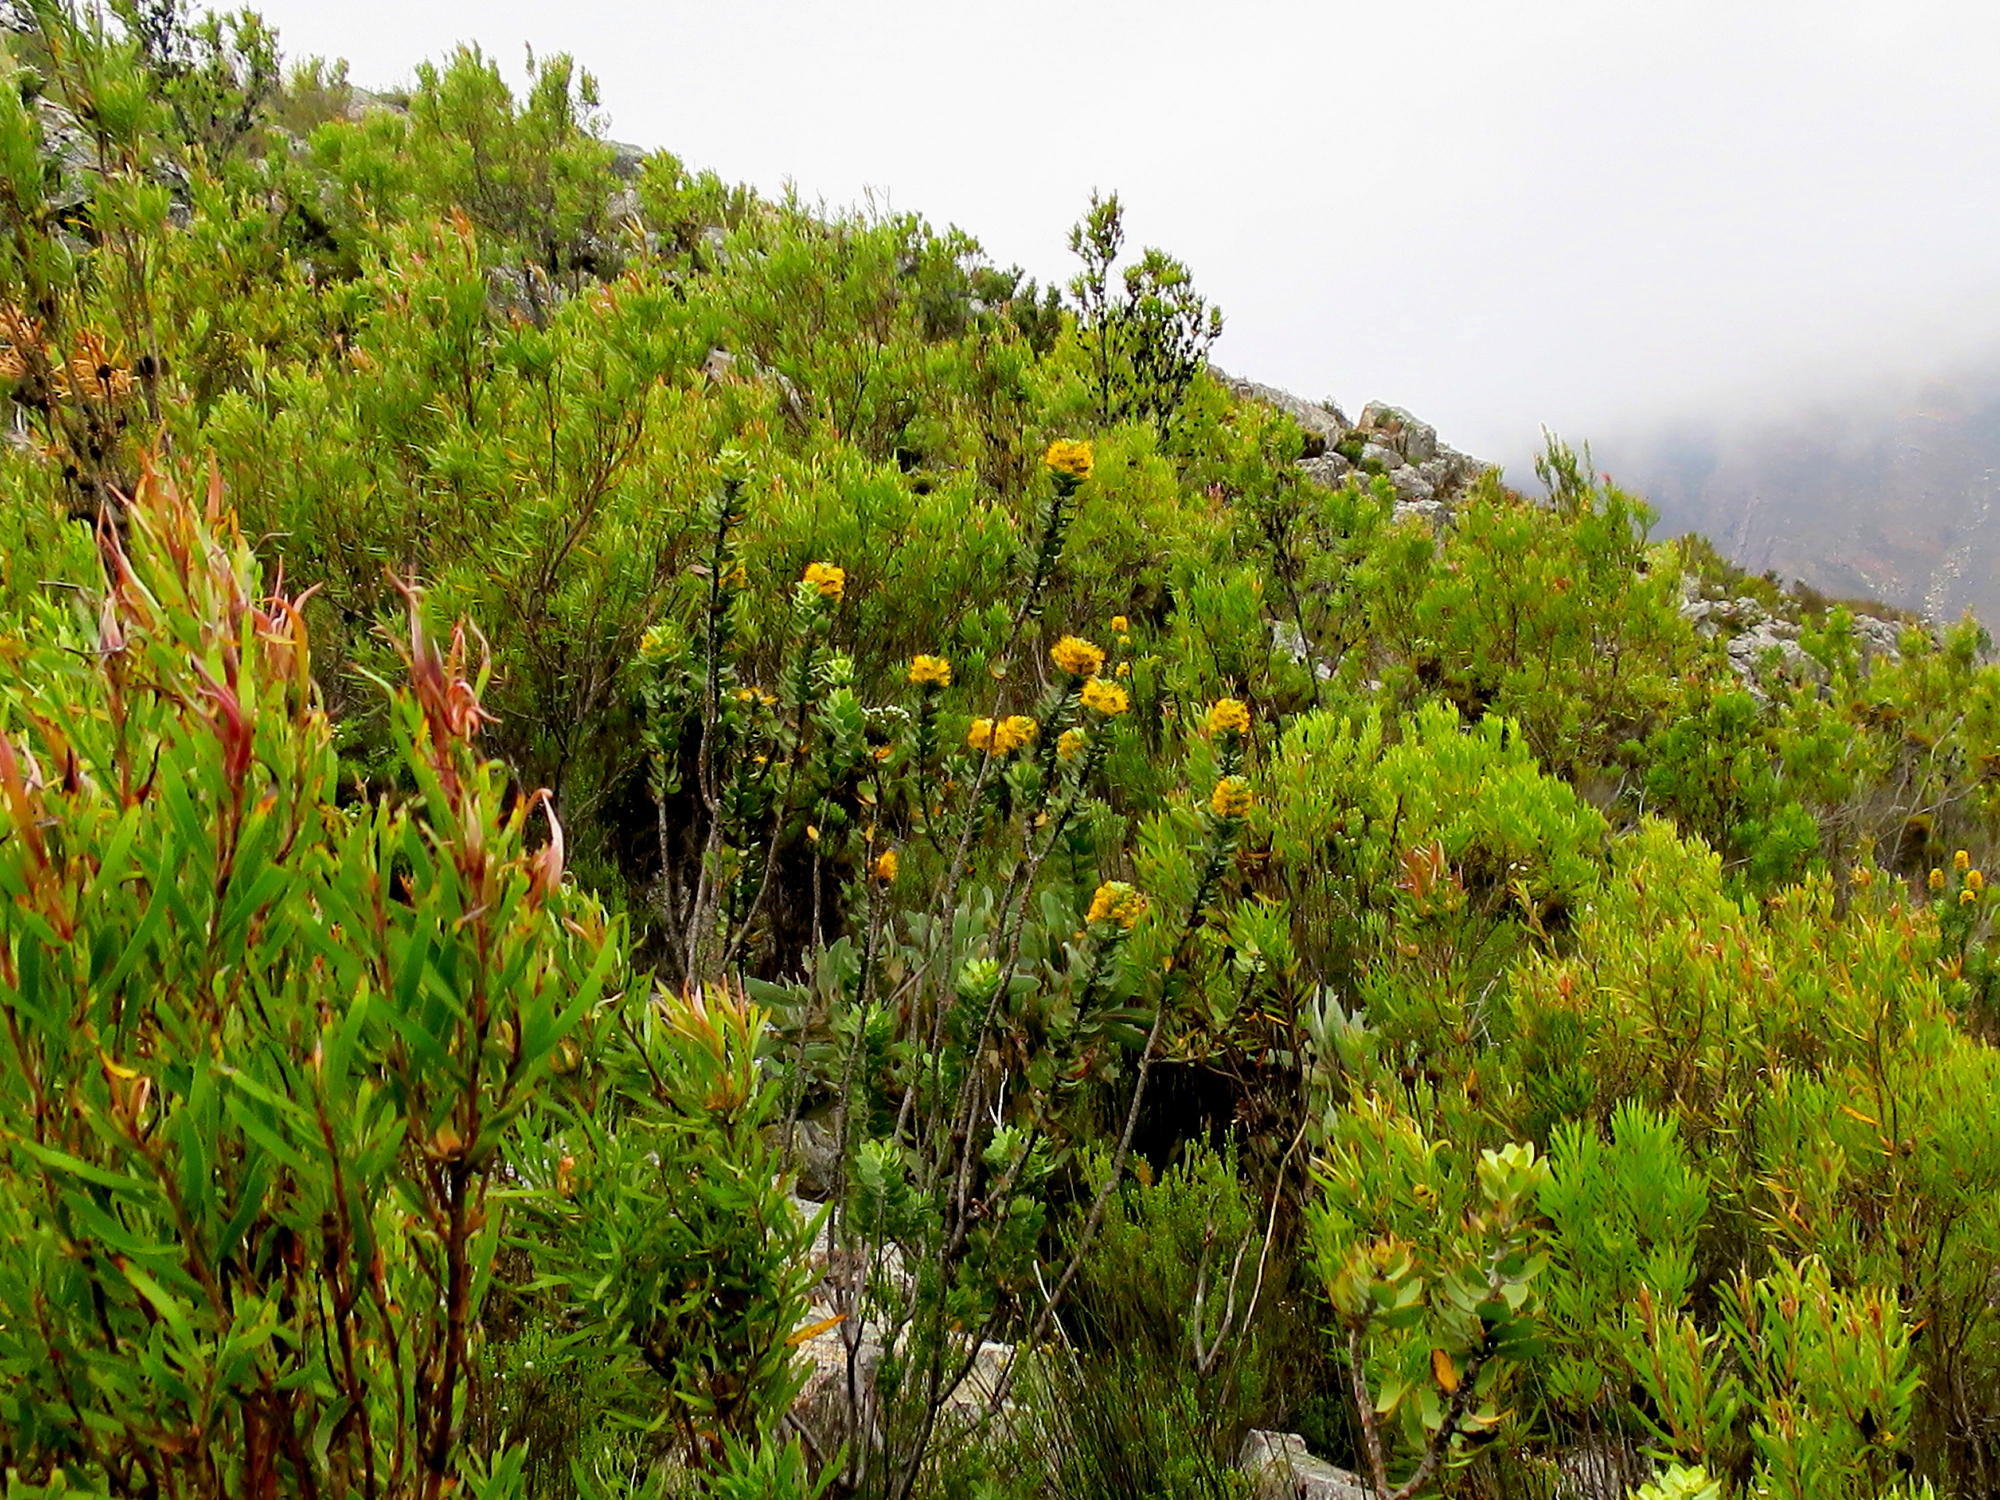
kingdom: Plantae
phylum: Tracheophyta
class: Magnoliopsida
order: Proteales
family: Proteaceae
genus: Mimetes
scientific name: Mimetes chrysanthus
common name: Golden pagoda
